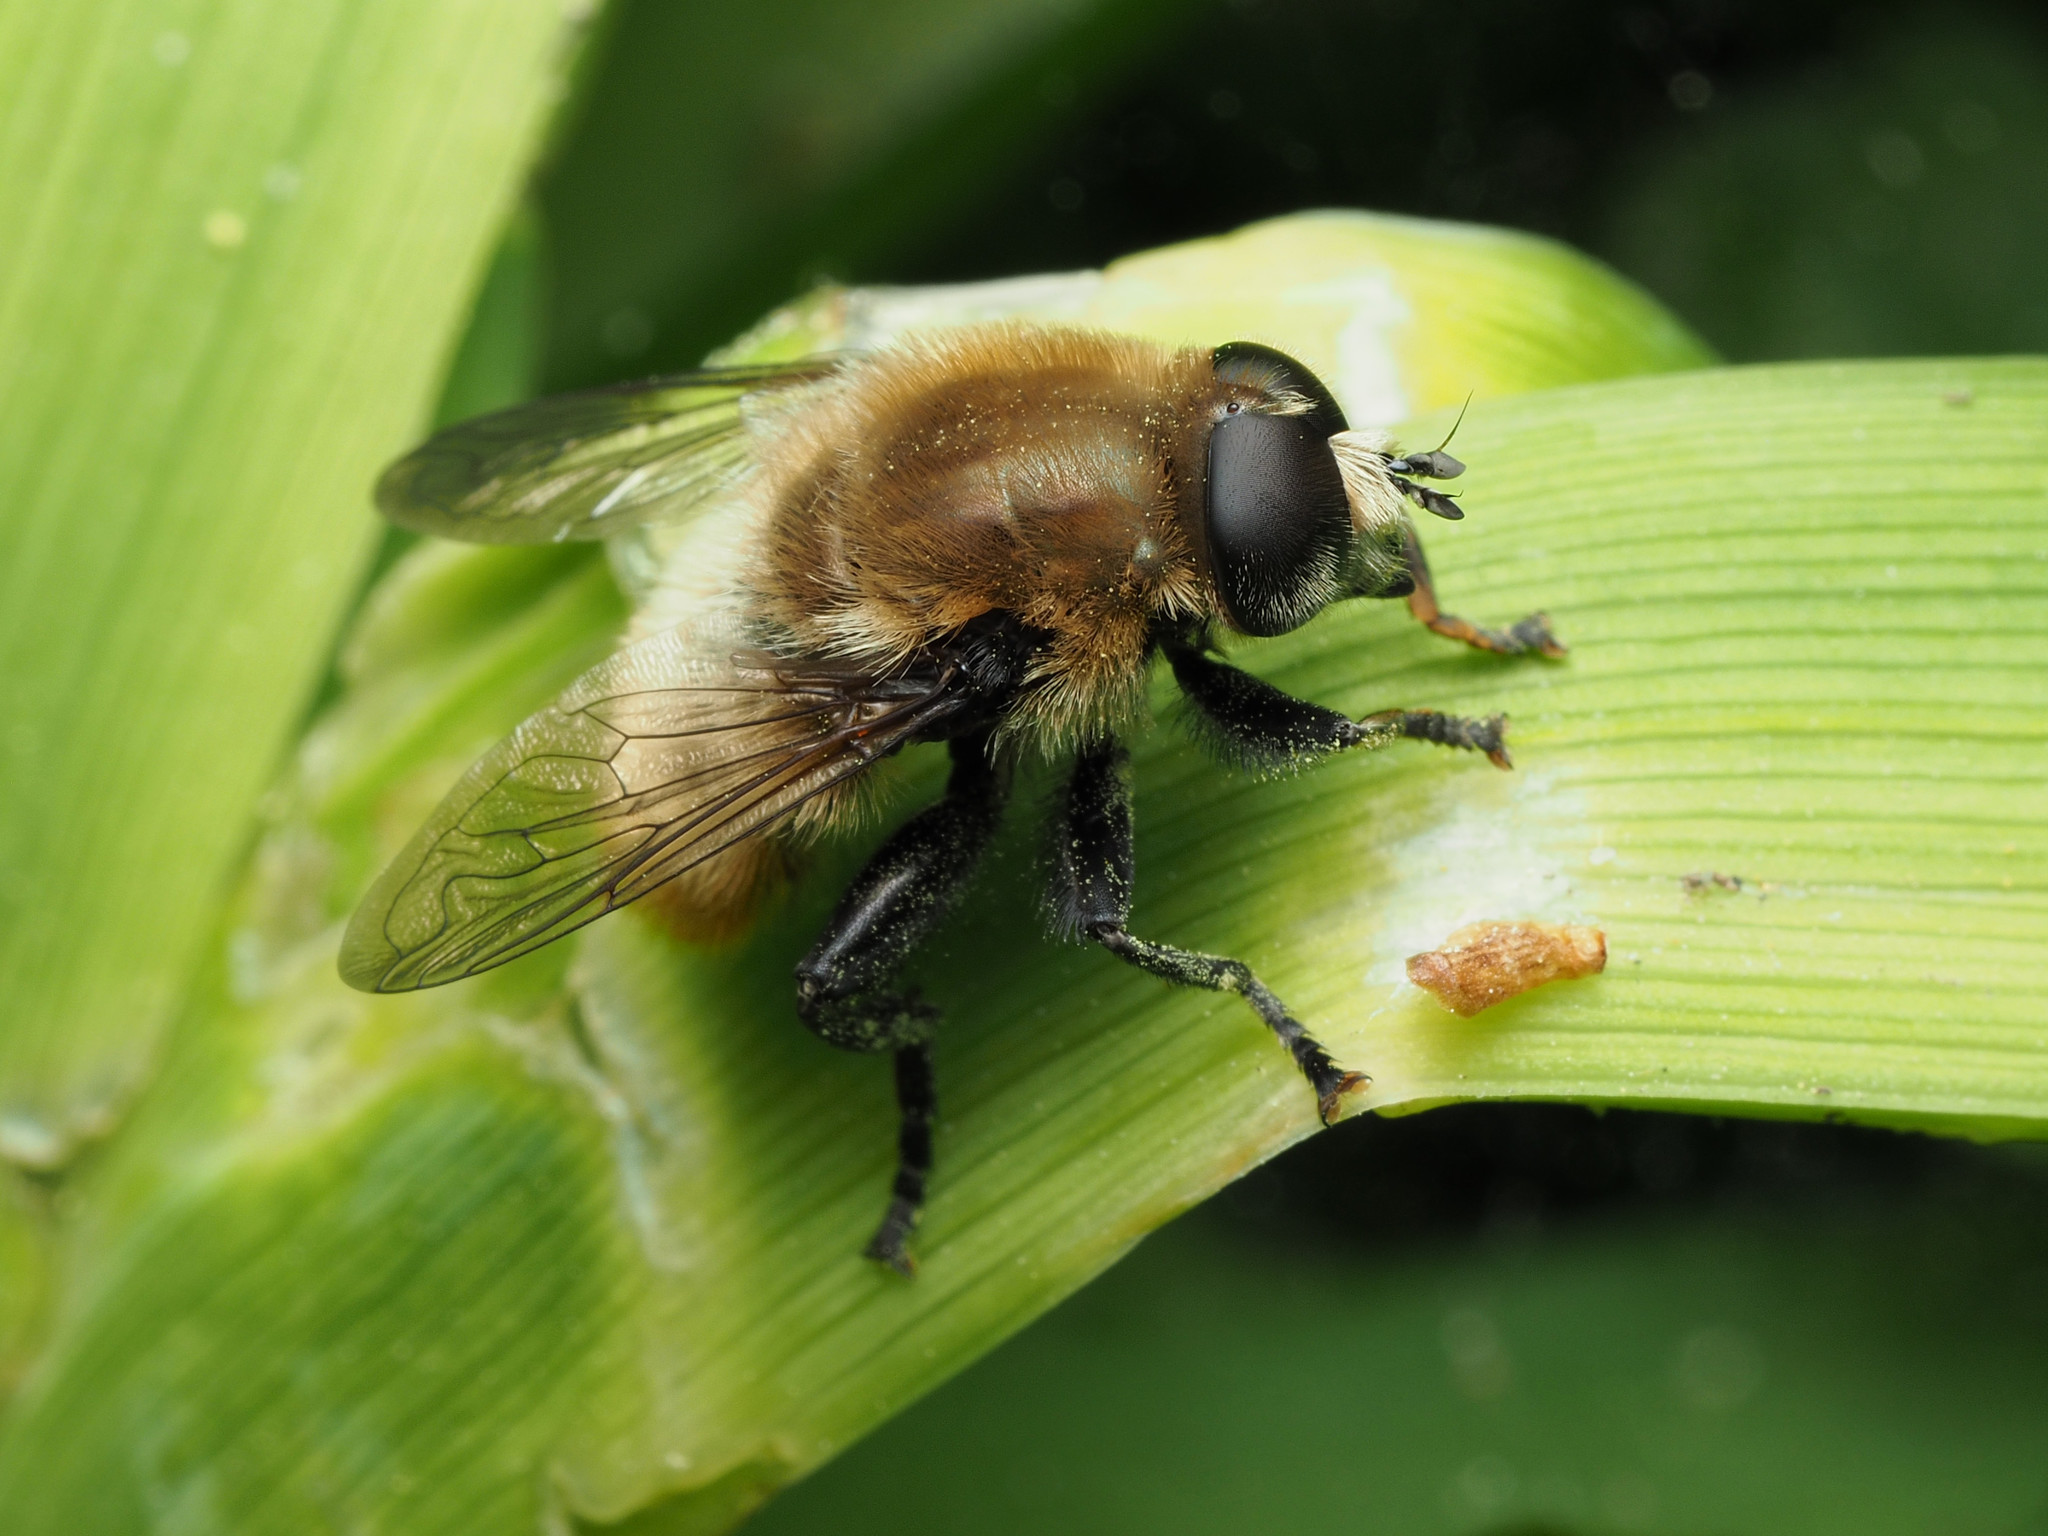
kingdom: Animalia
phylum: Arthropoda
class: Insecta
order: Diptera
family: Syrphidae
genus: Merodon
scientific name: Merodon equestris
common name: Greater bulb-fly
